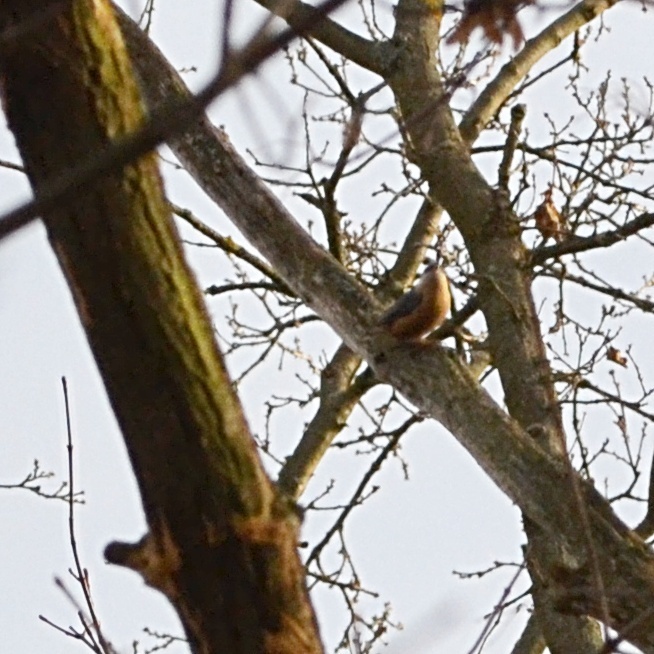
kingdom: Animalia
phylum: Chordata
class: Aves
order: Passeriformes
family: Sittidae
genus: Sitta
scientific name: Sitta europaea
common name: Eurasian nuthatch
